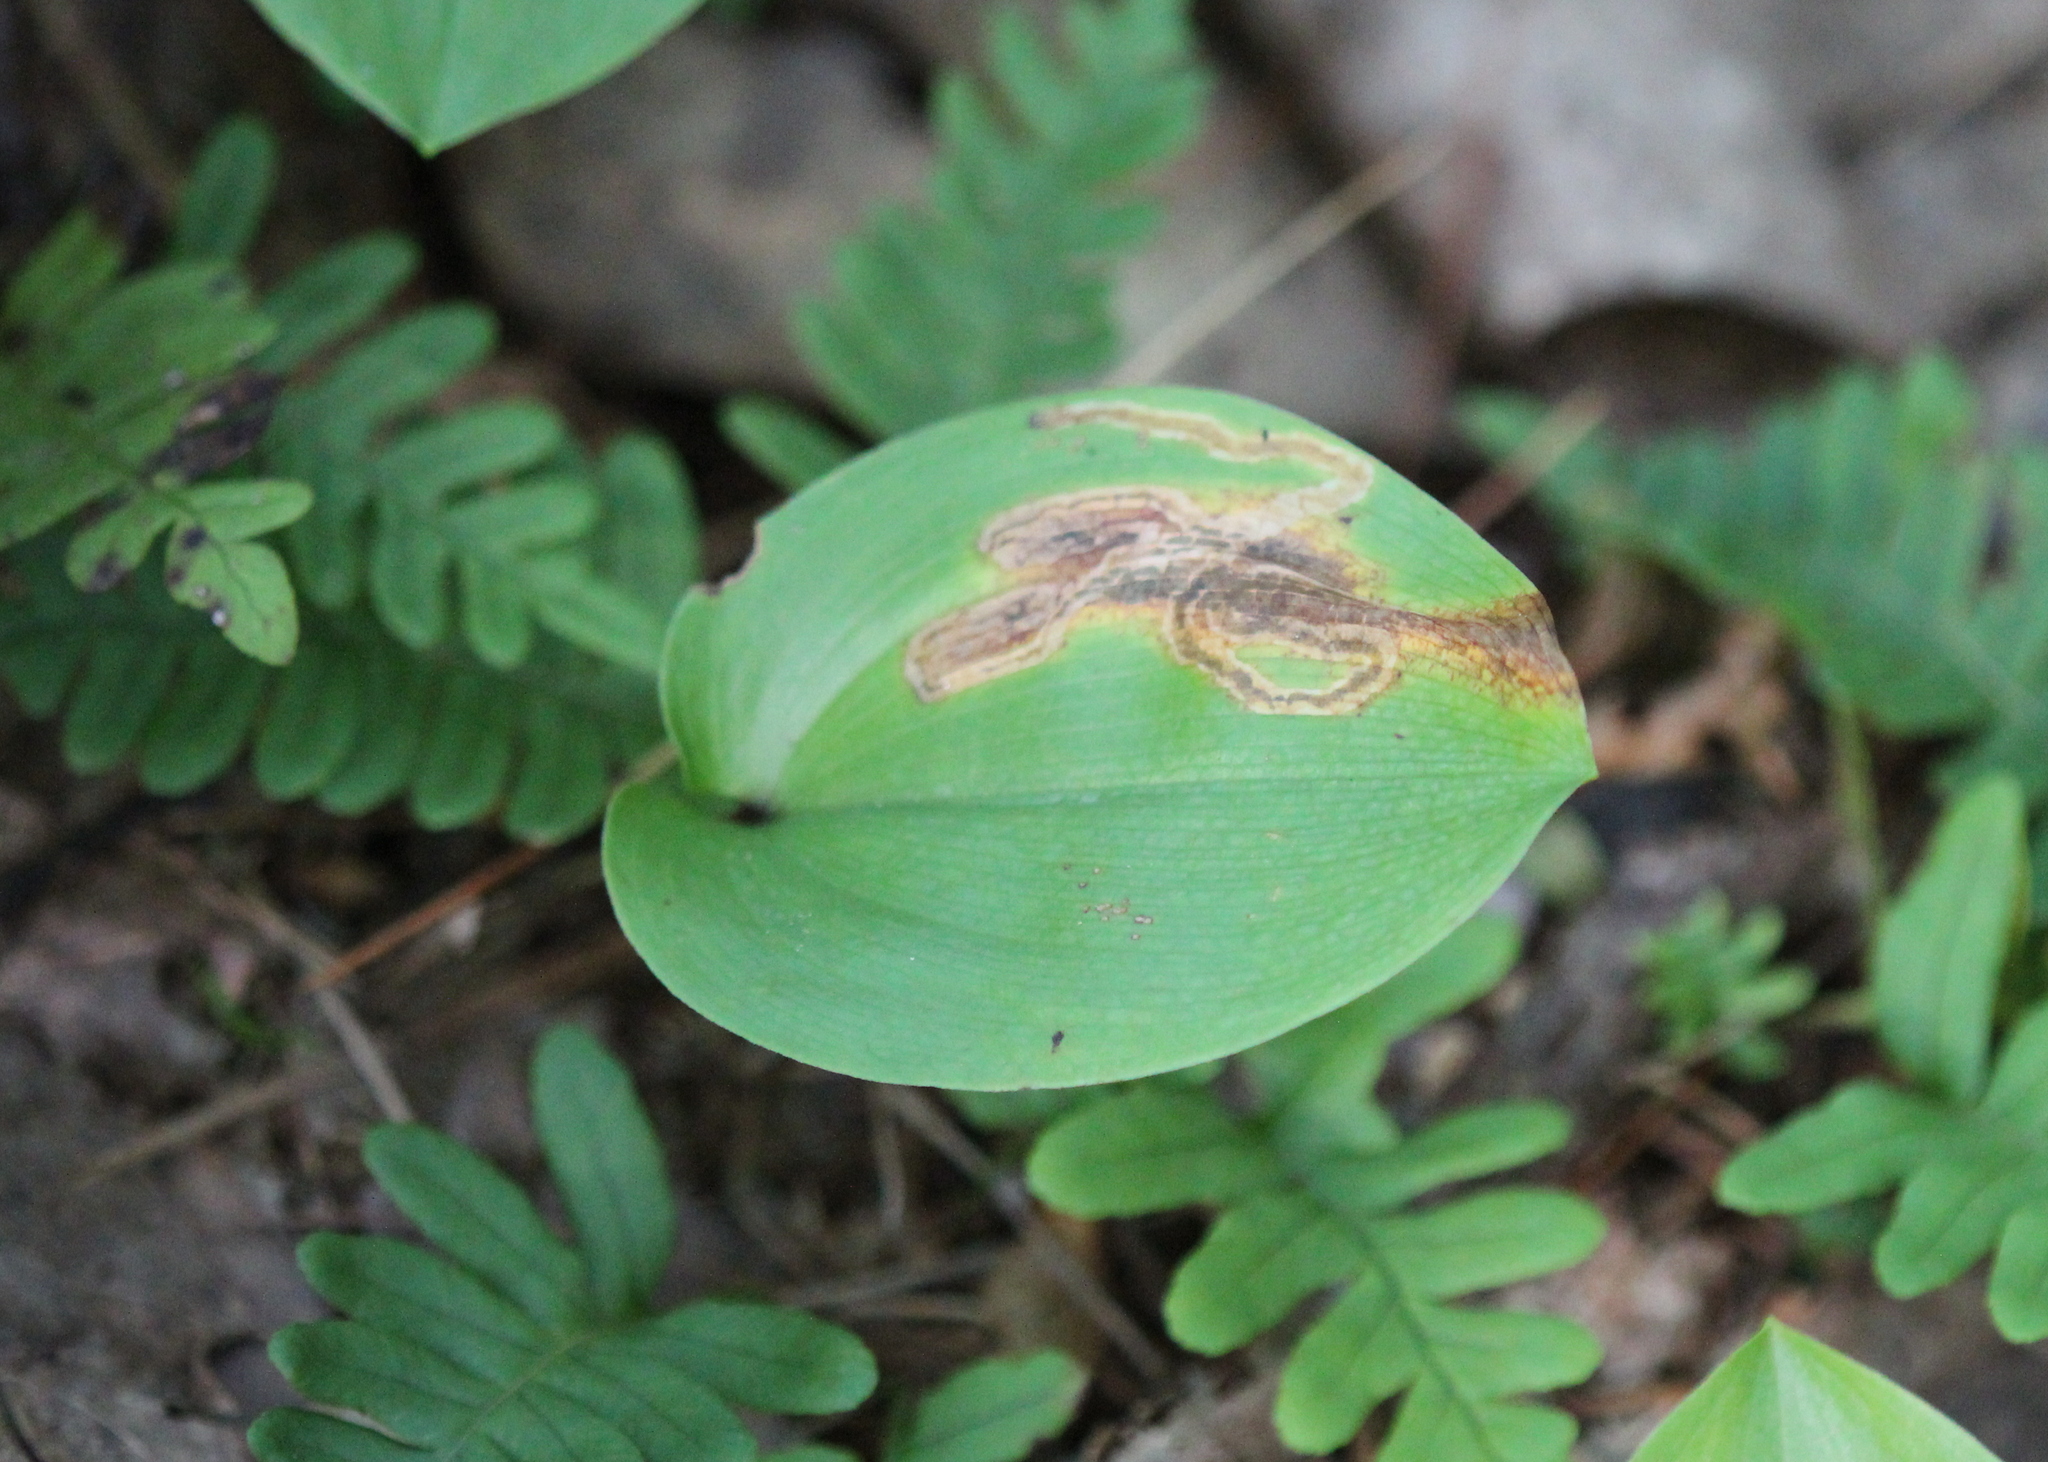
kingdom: Plantae
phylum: Tracheophyta
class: Liliopsida
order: Asparagales
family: Asparagaceae
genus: Maianthemum
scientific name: Maianthemum canadense
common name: False lily-of-the-valley
